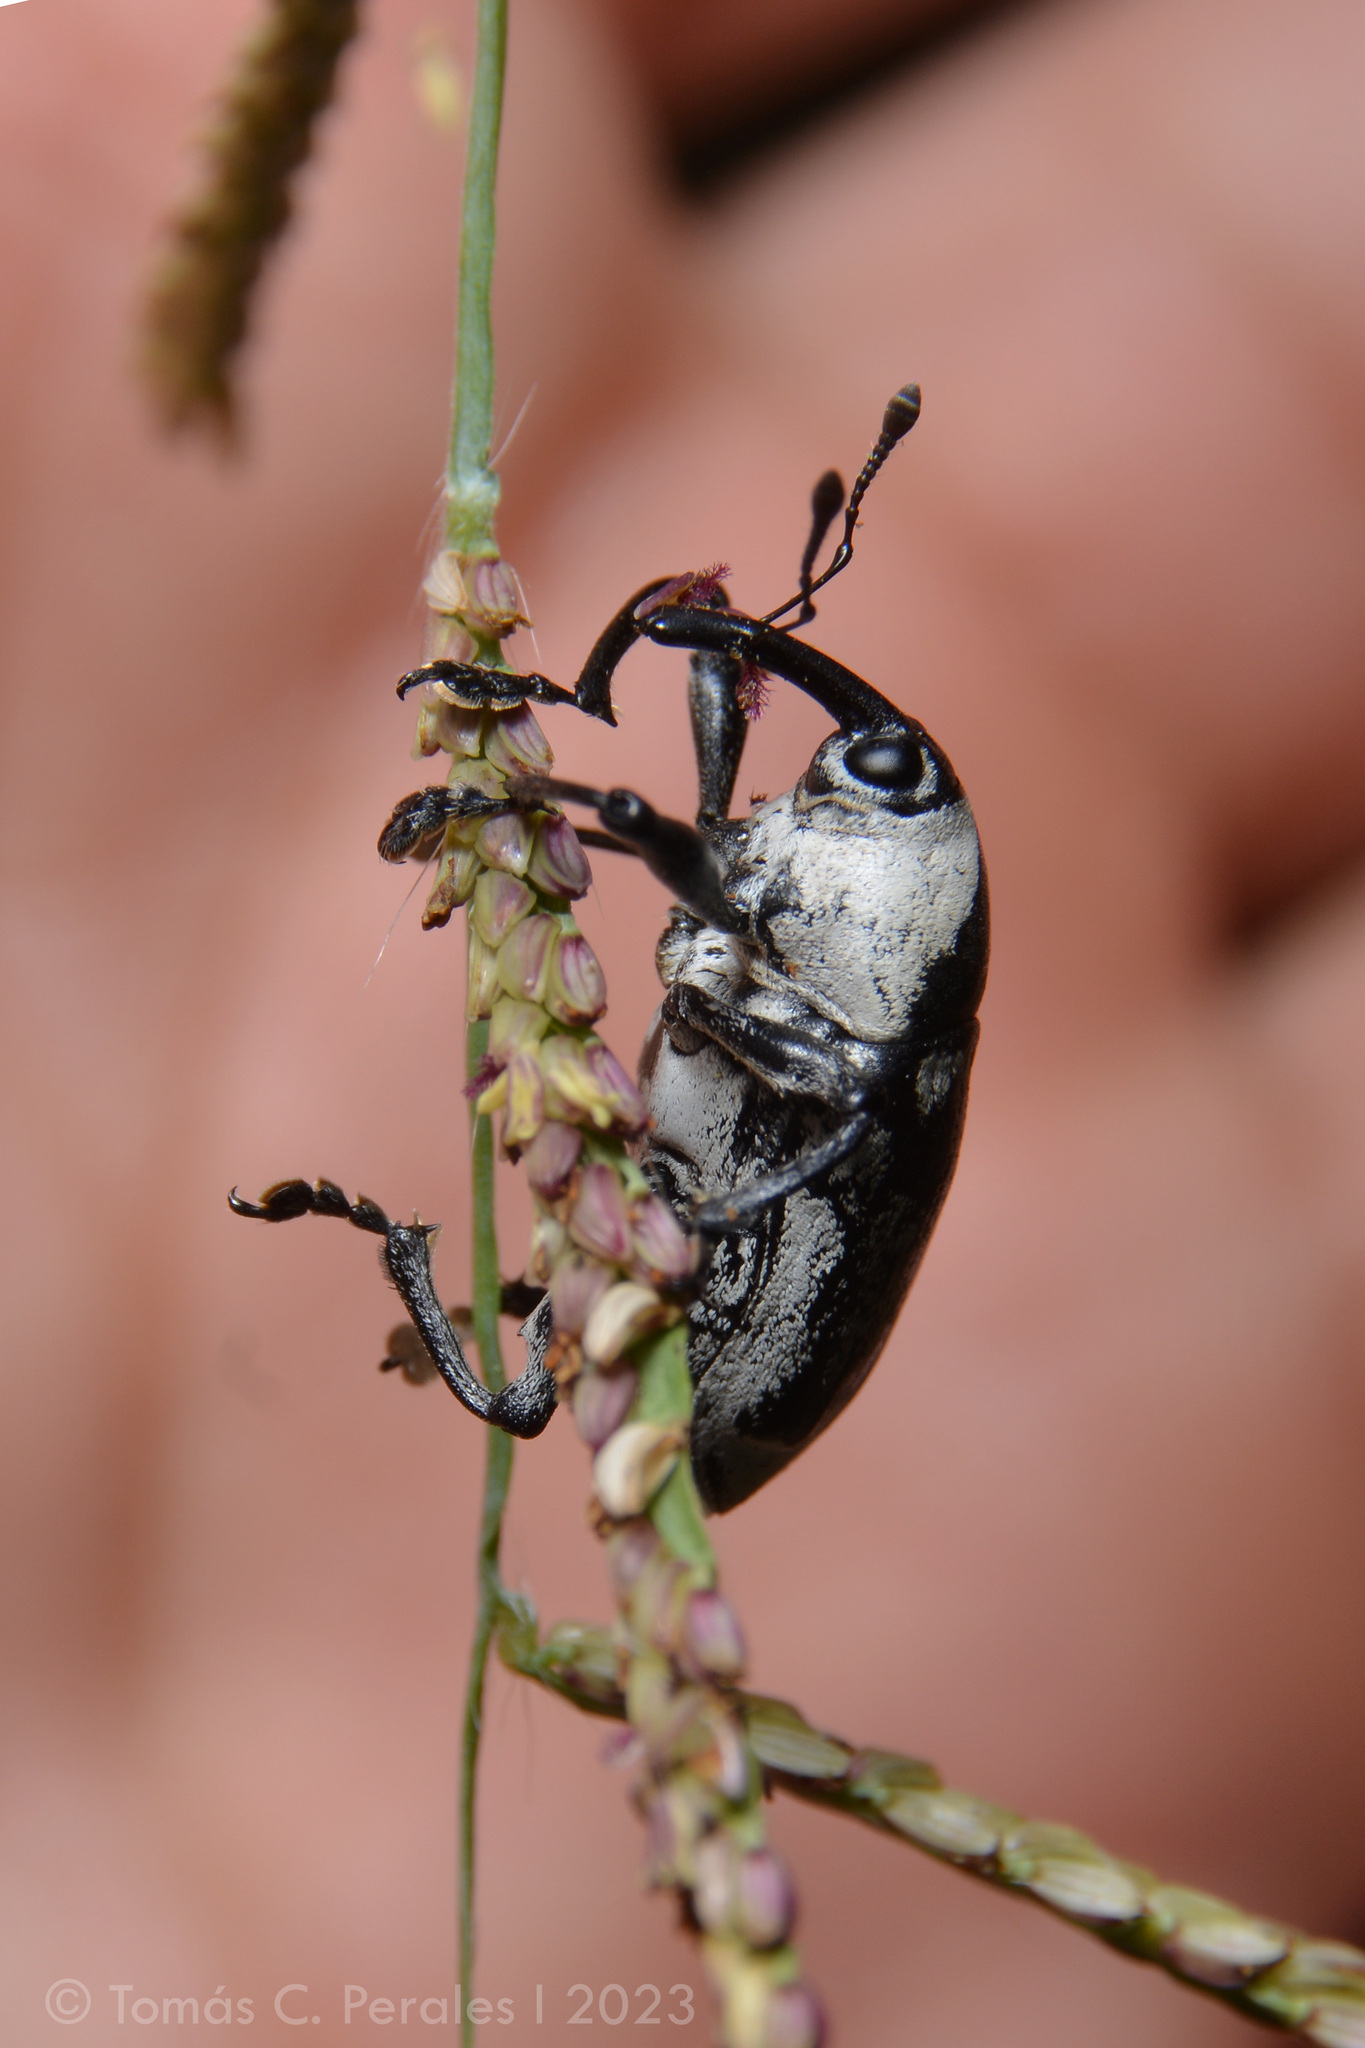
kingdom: Animalia
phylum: Arthropoda
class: Insecta
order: Coleoptera
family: Curculionidae
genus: Cholus
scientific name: Cholus annulatus
